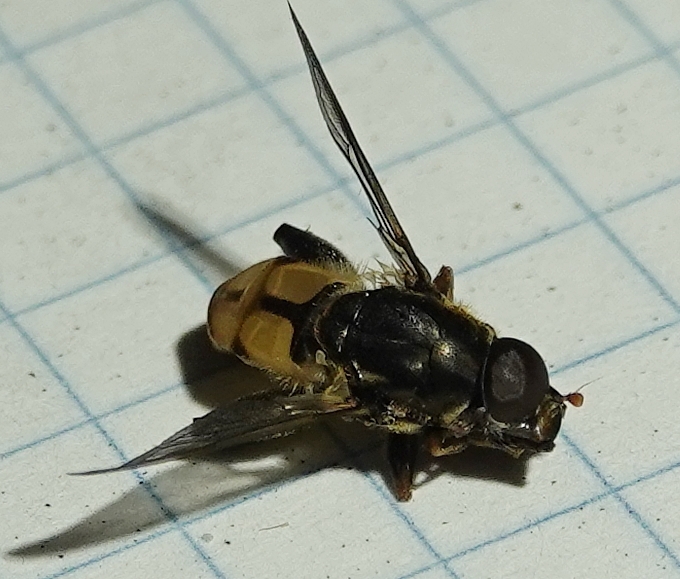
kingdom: Animalia
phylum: Arthropoda
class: Insecta
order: Diptera
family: Syrphidae
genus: Tropidia
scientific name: Tropidia quadrata
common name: Common thick-legged fly
